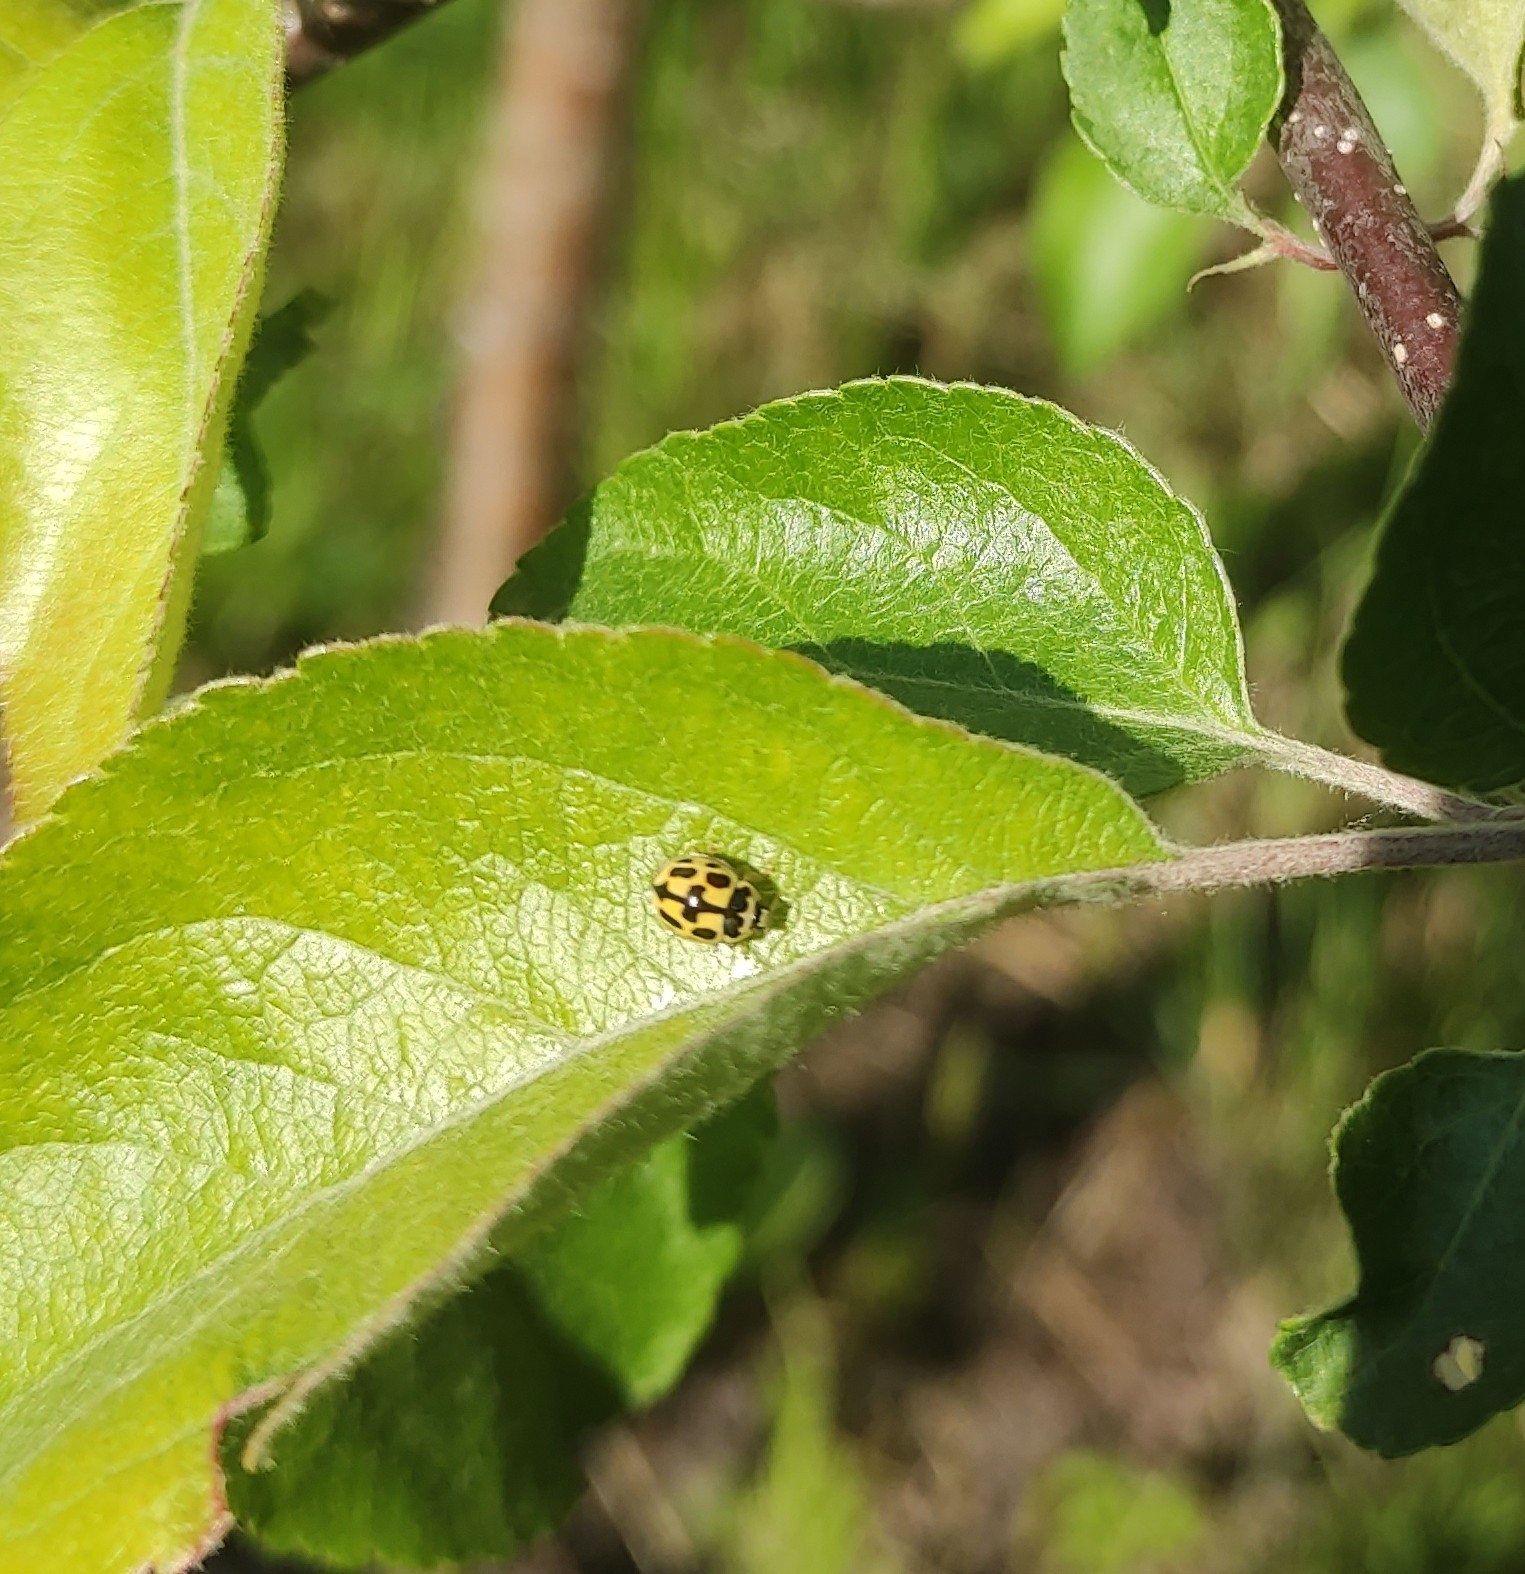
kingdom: Animalia
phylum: Arthropoda
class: Insecta
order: Coleoptera
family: Coccinellidae
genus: Propylaea
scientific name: Propylaea quatuordecimpunctata
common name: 14-spotted ladybird beetle
